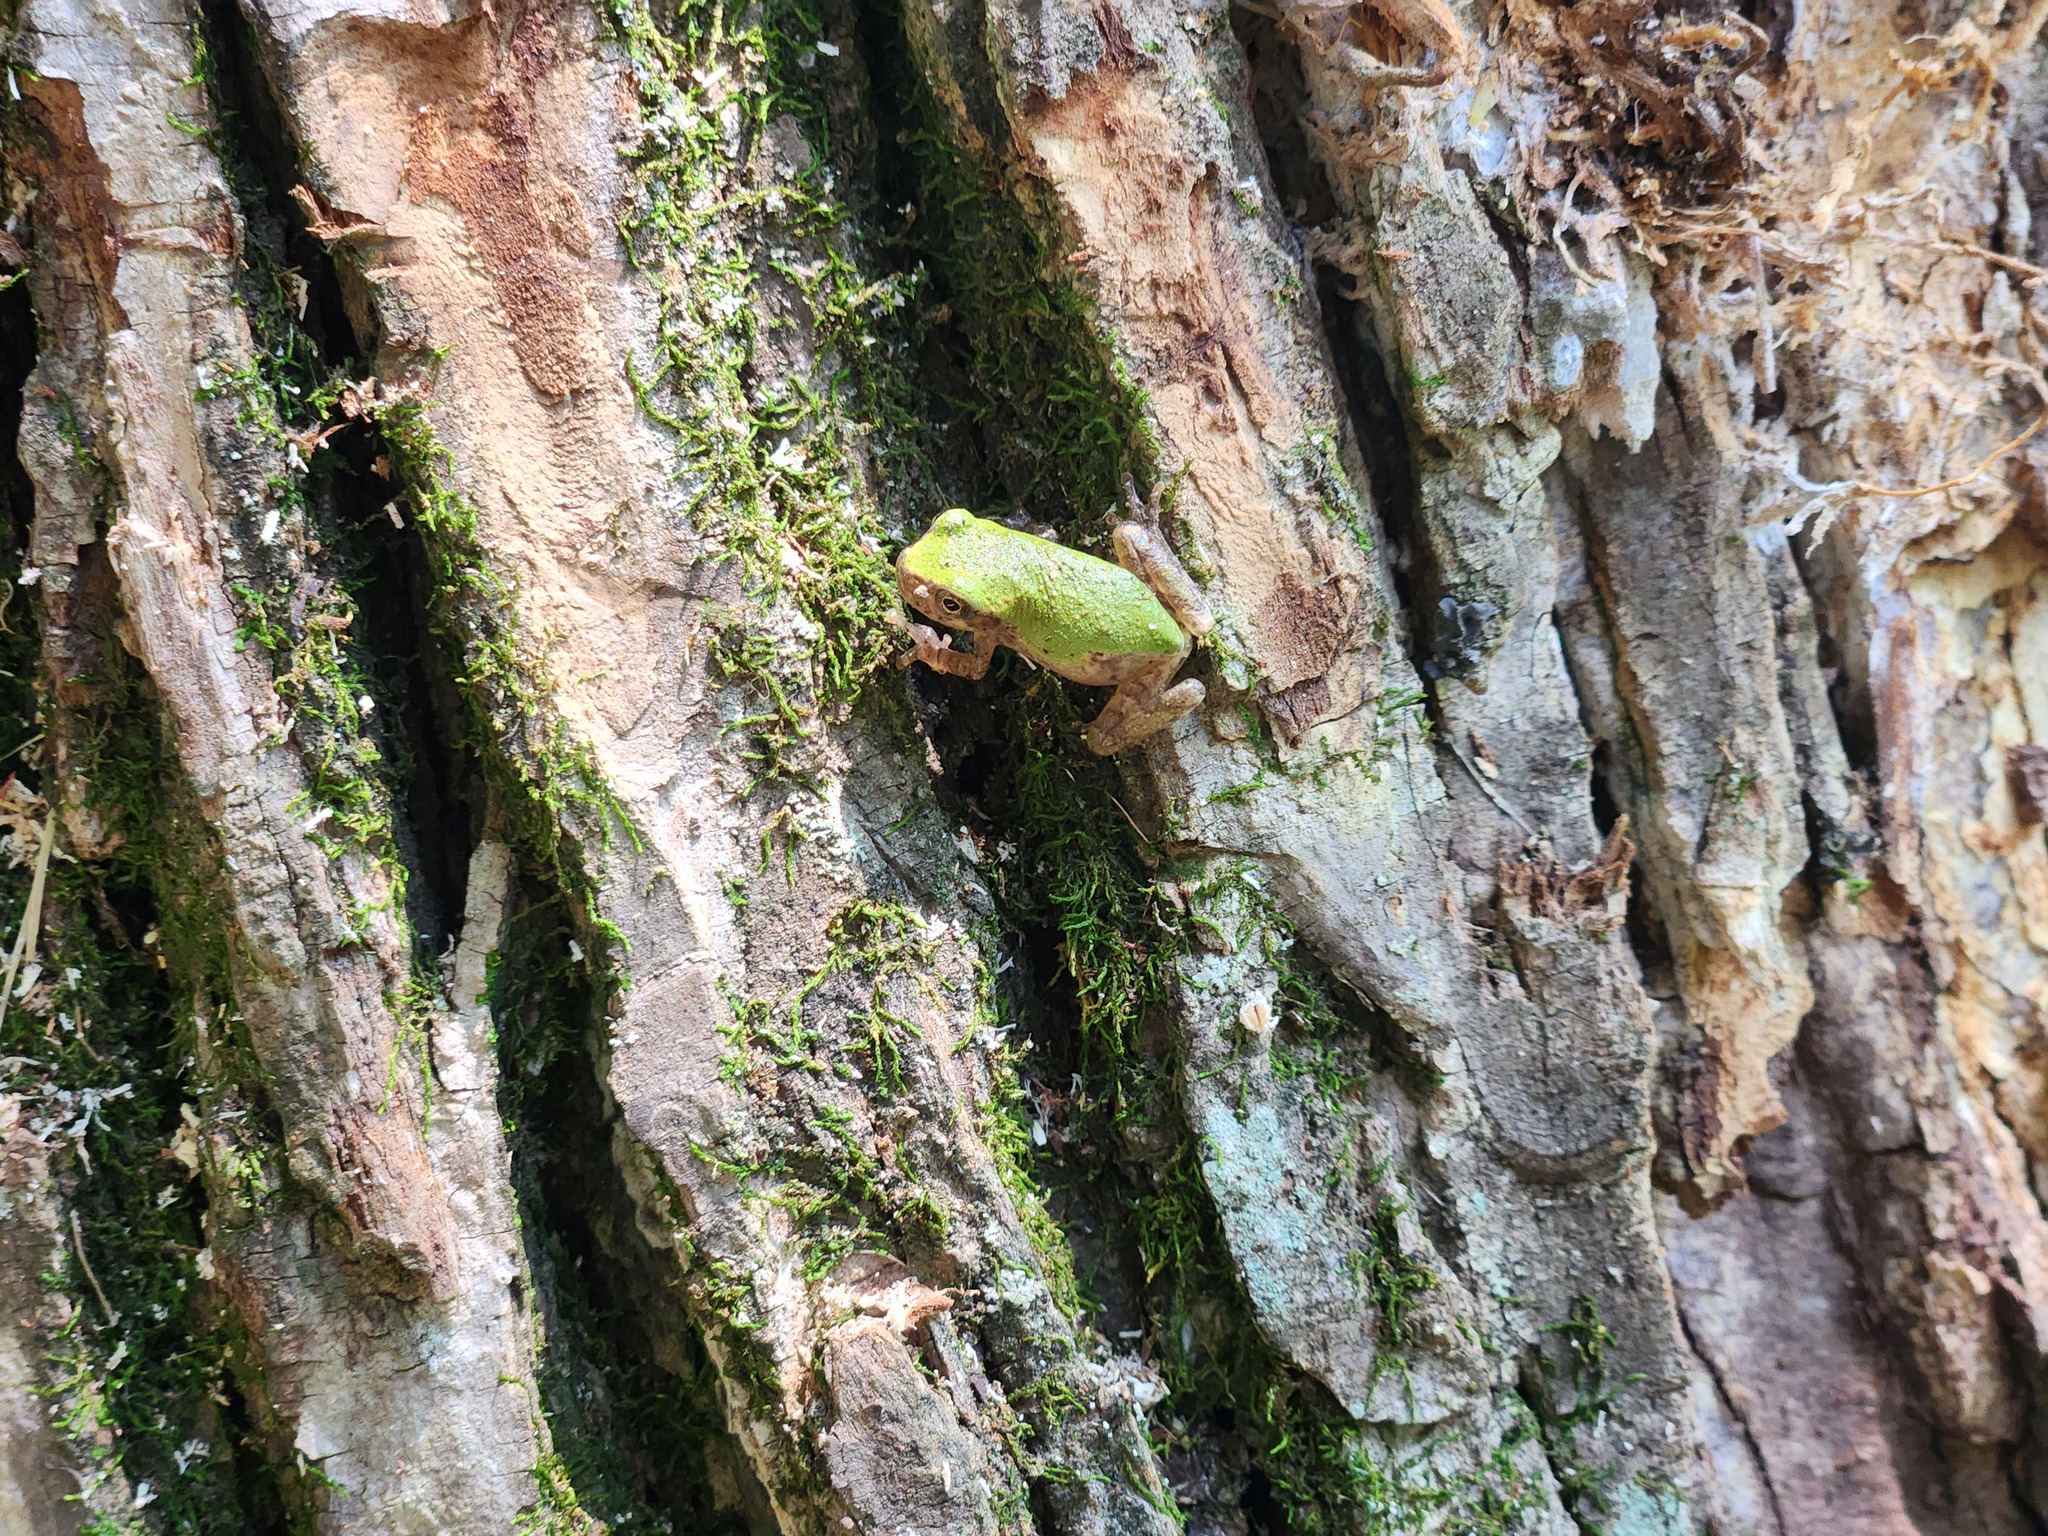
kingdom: Animalia
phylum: Chordata
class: Amphibia
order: Anura
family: Hylidae
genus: Dryophytes
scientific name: Dryophytes chrysoscelis
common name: Cope's gray treefrog
